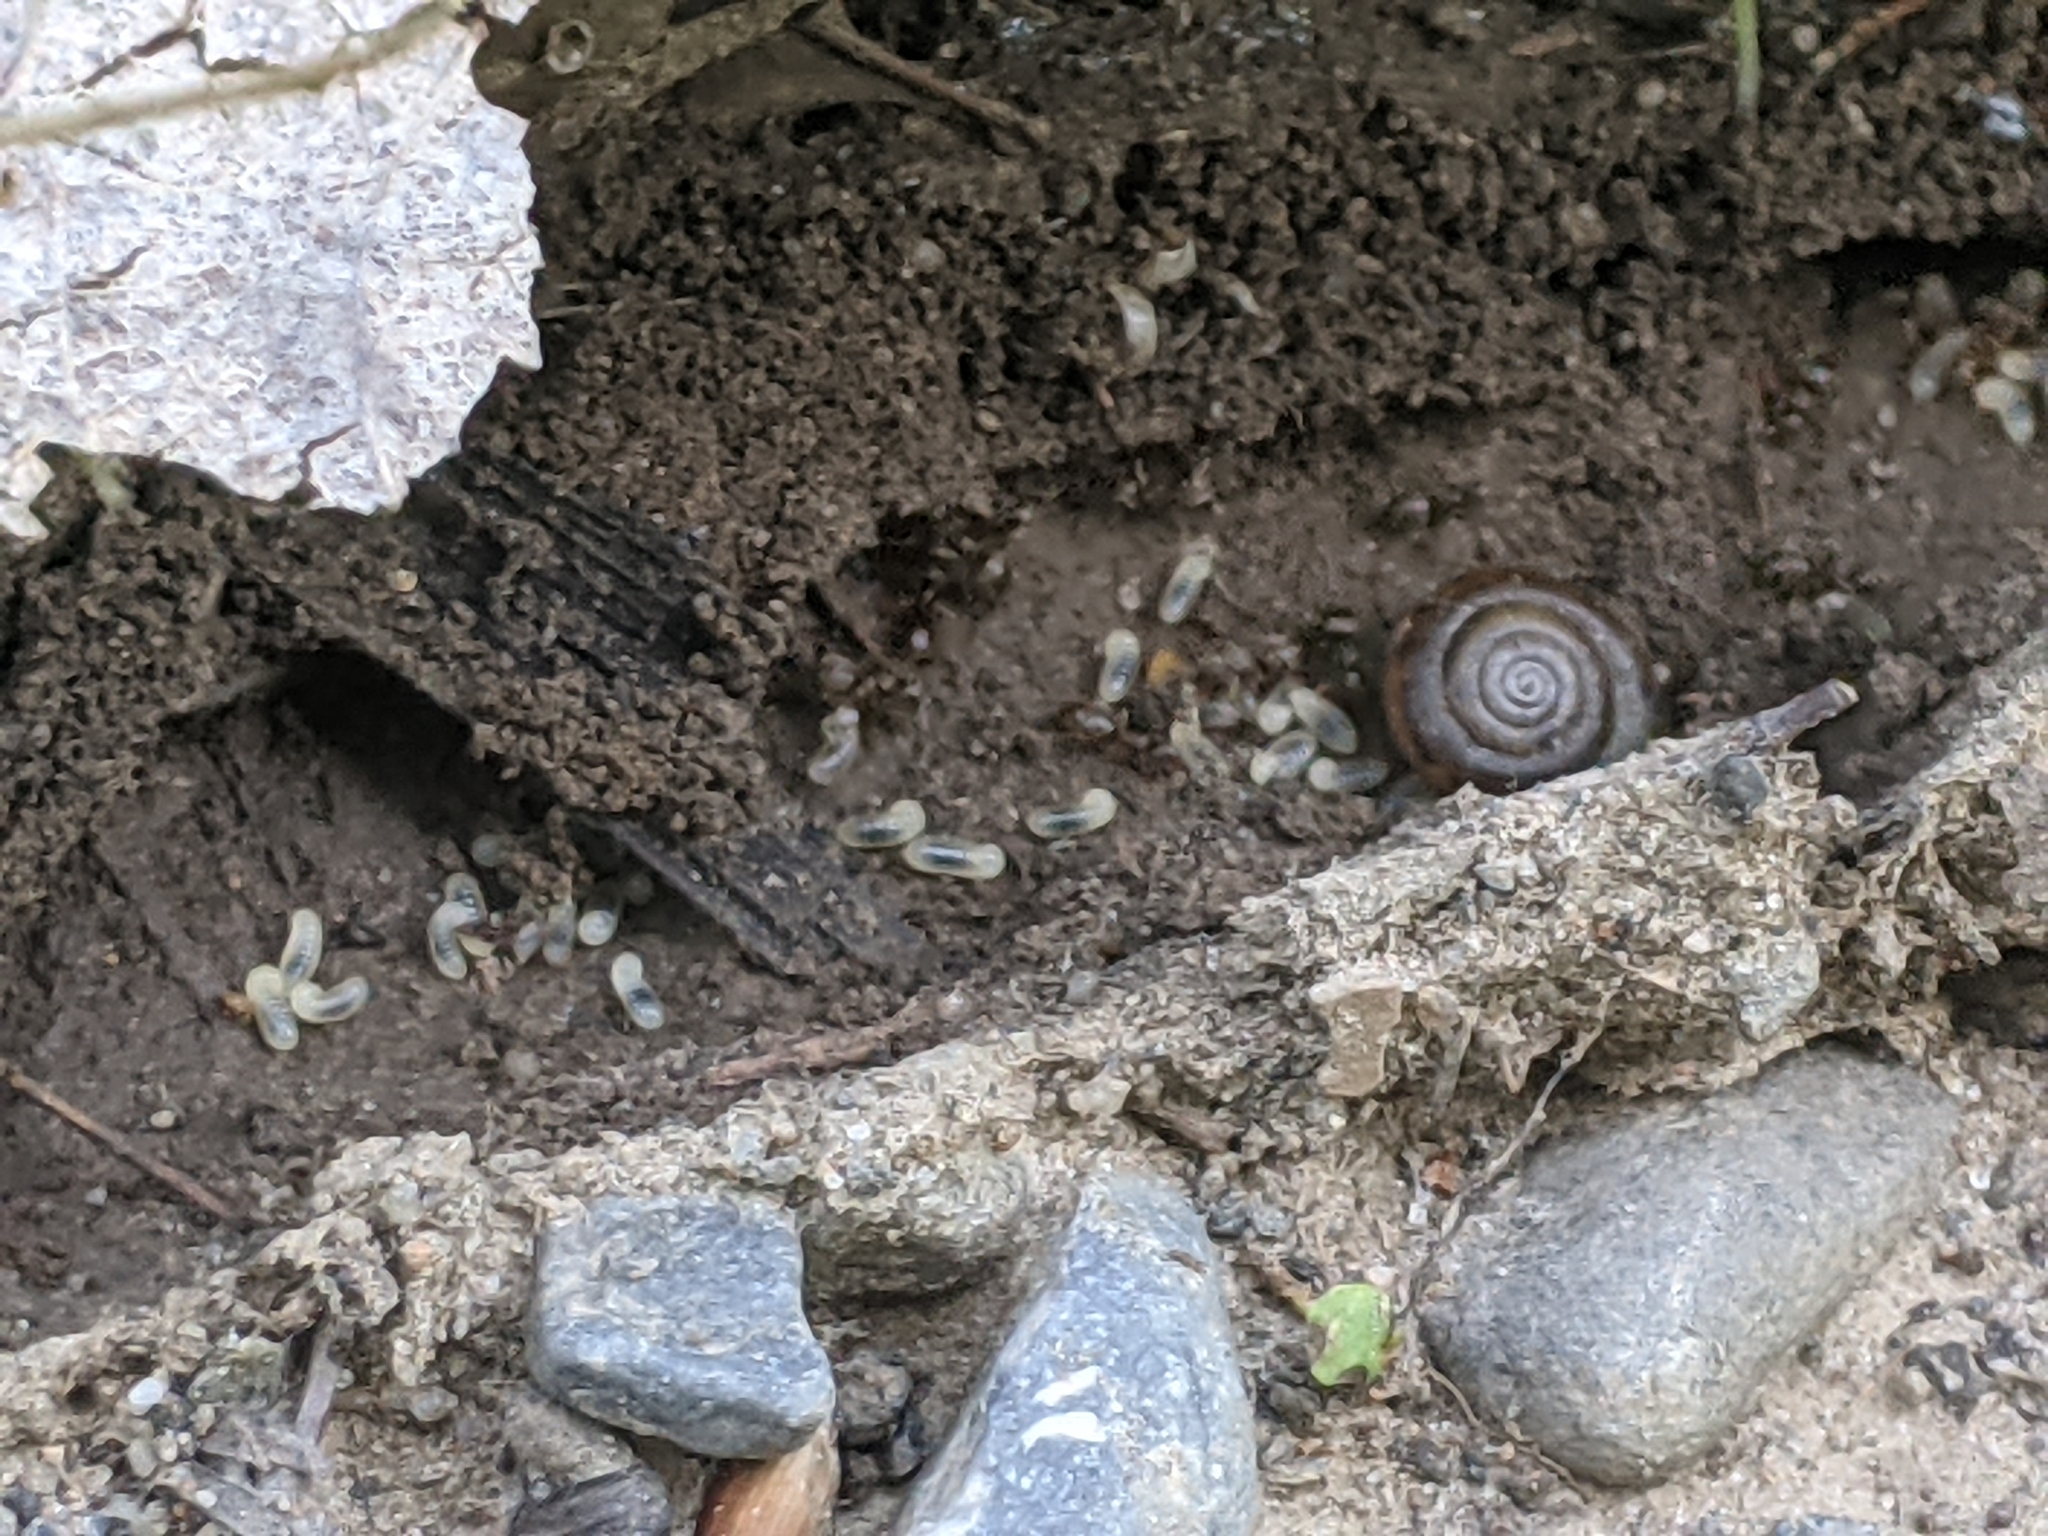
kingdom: Animalia
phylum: Arthropoda
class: Insecta
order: Hymenoptera
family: Formicidae
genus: Lasius
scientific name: Lasius americanus
